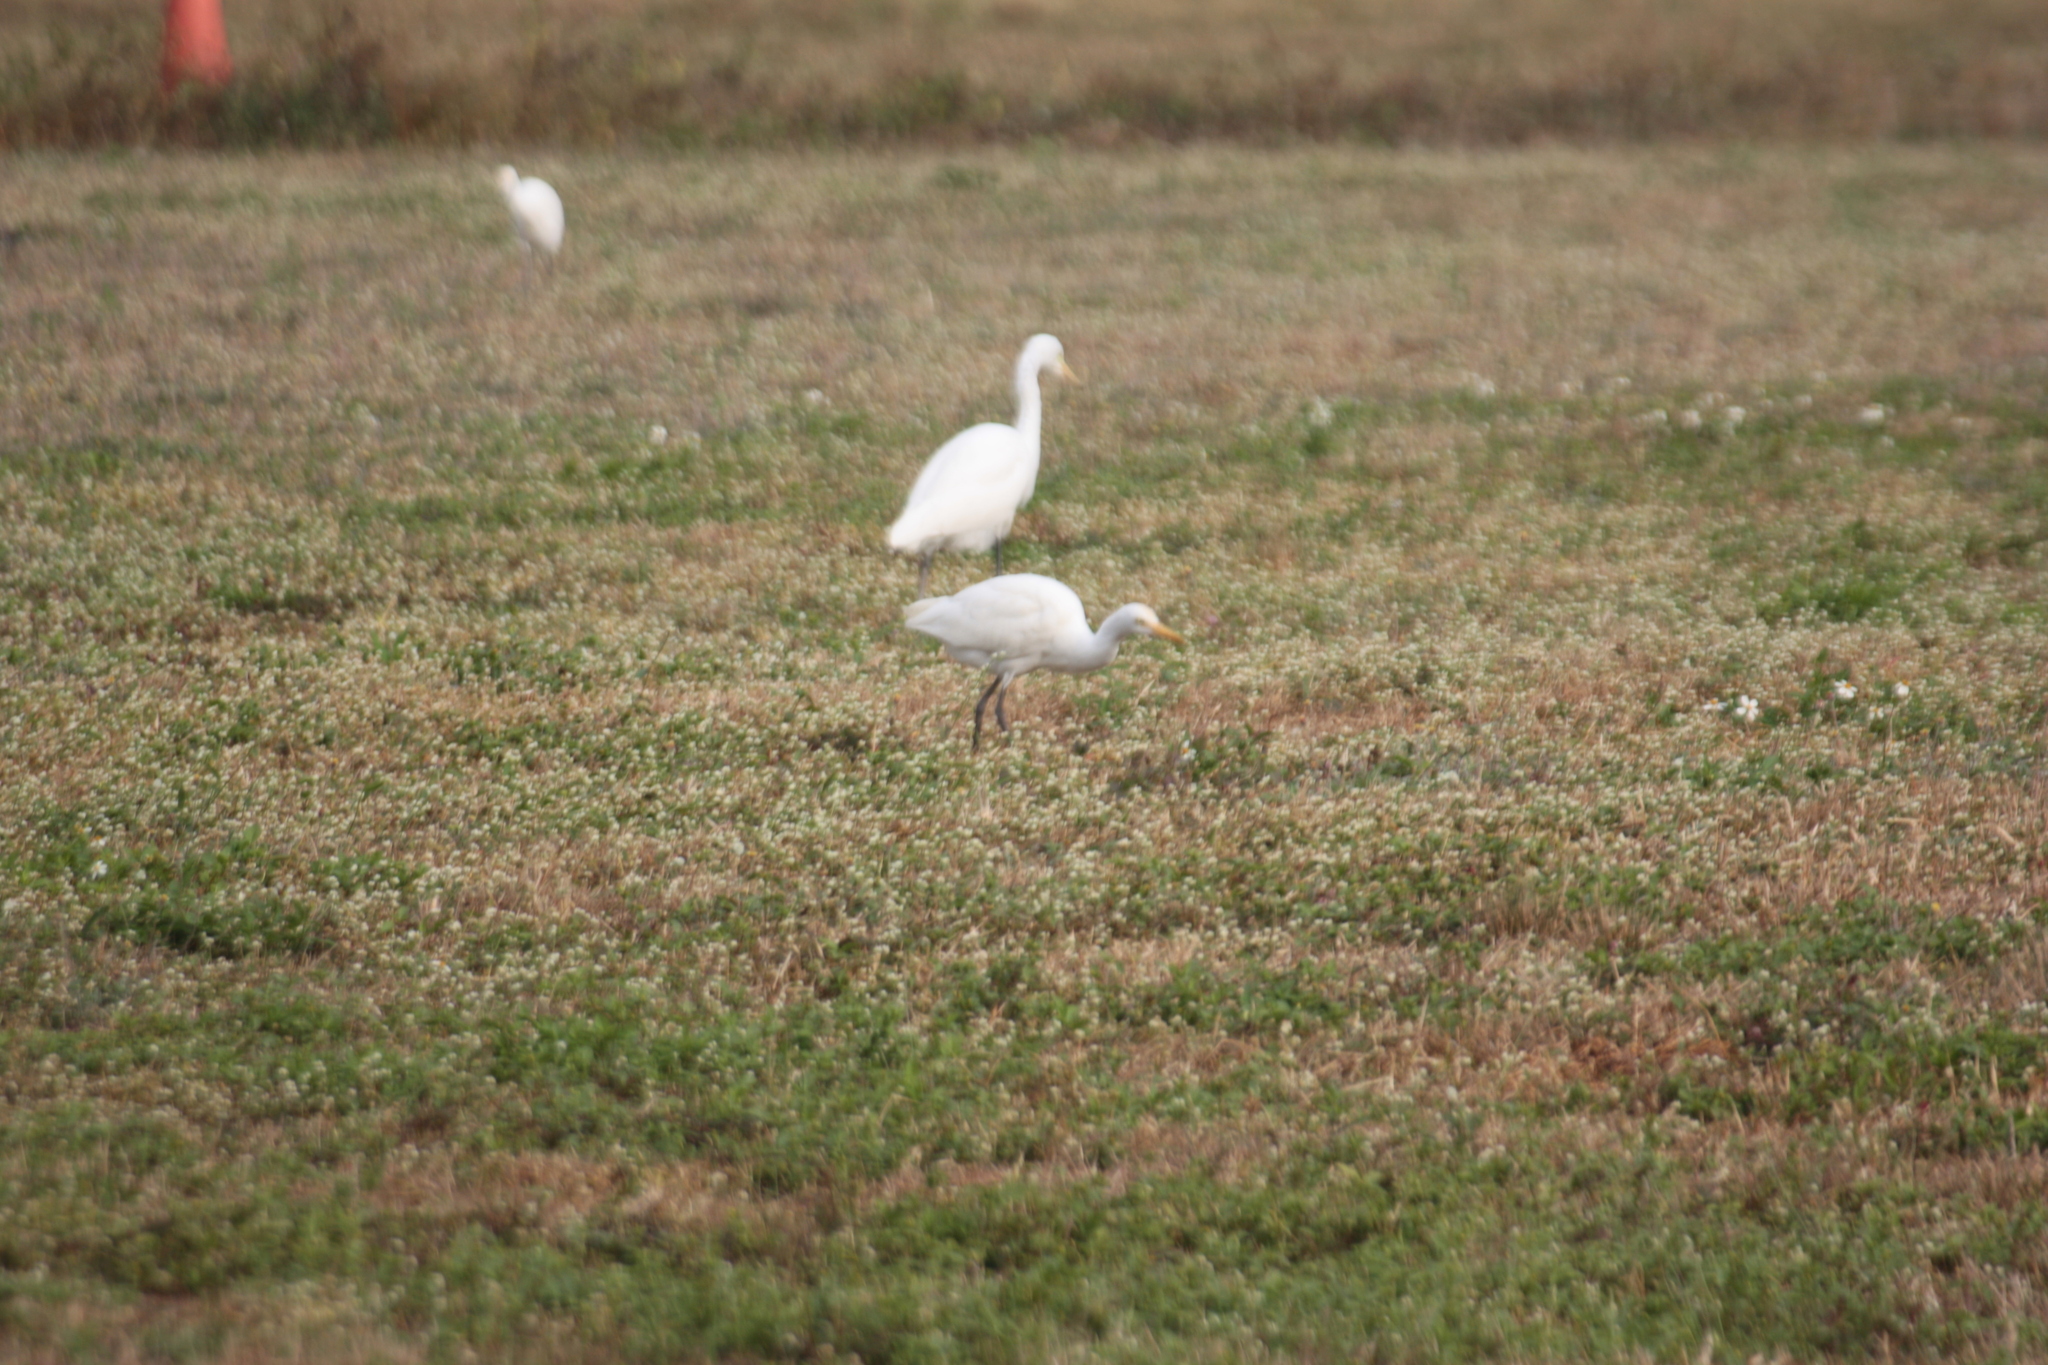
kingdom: Animalia
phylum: Chordata
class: Aves
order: Pelecaniformes
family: Ardeidae
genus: Bubulcus
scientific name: Bubulcus coromandus
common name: Eastern cattle egret
